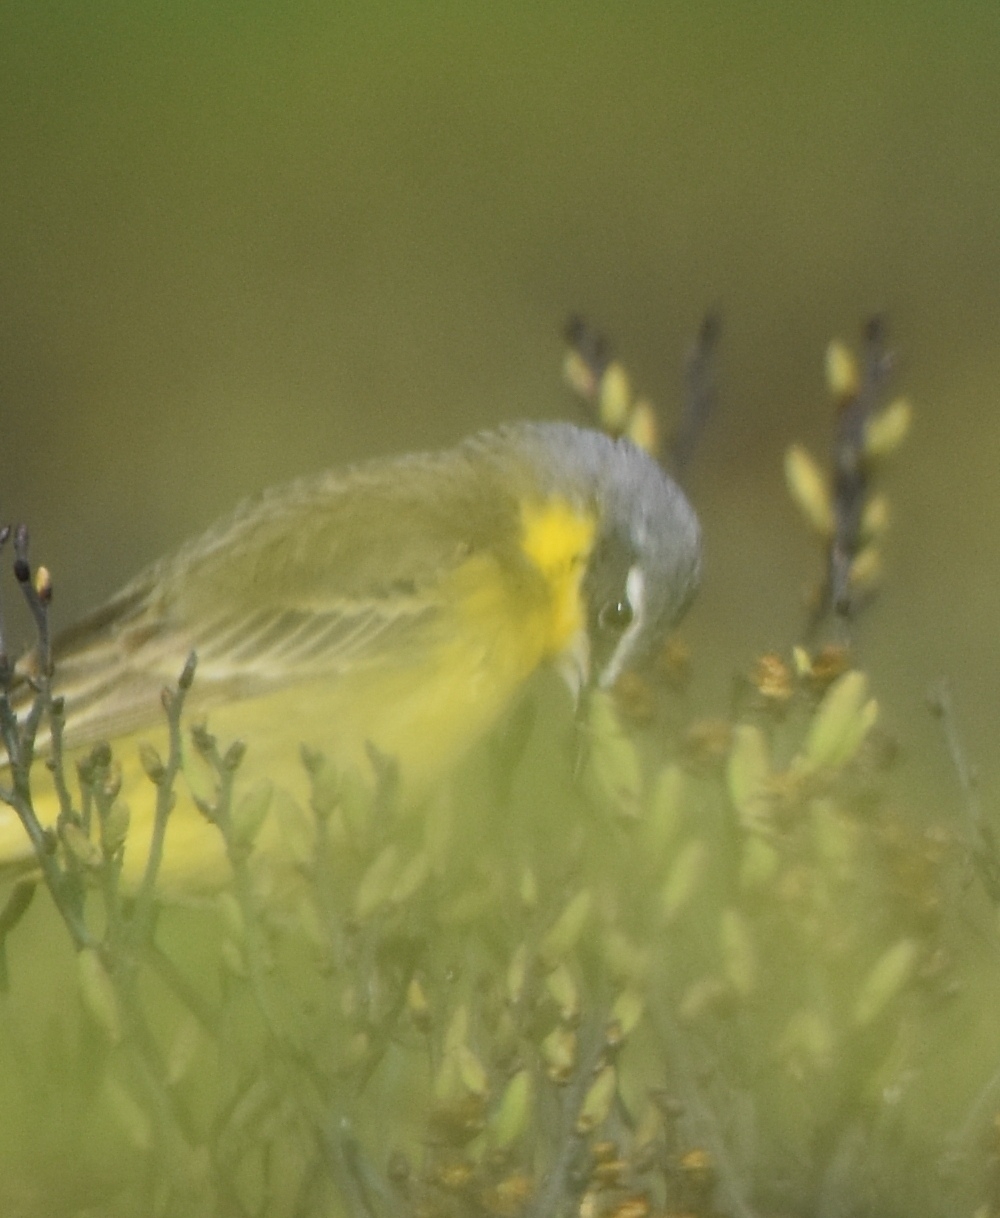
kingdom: Animalia
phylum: Chordata
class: Aves
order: Passeriformes
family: Motacillidae
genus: Motacilla
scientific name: Motacilla tschutschensis
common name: Eastern yellow wagtail
